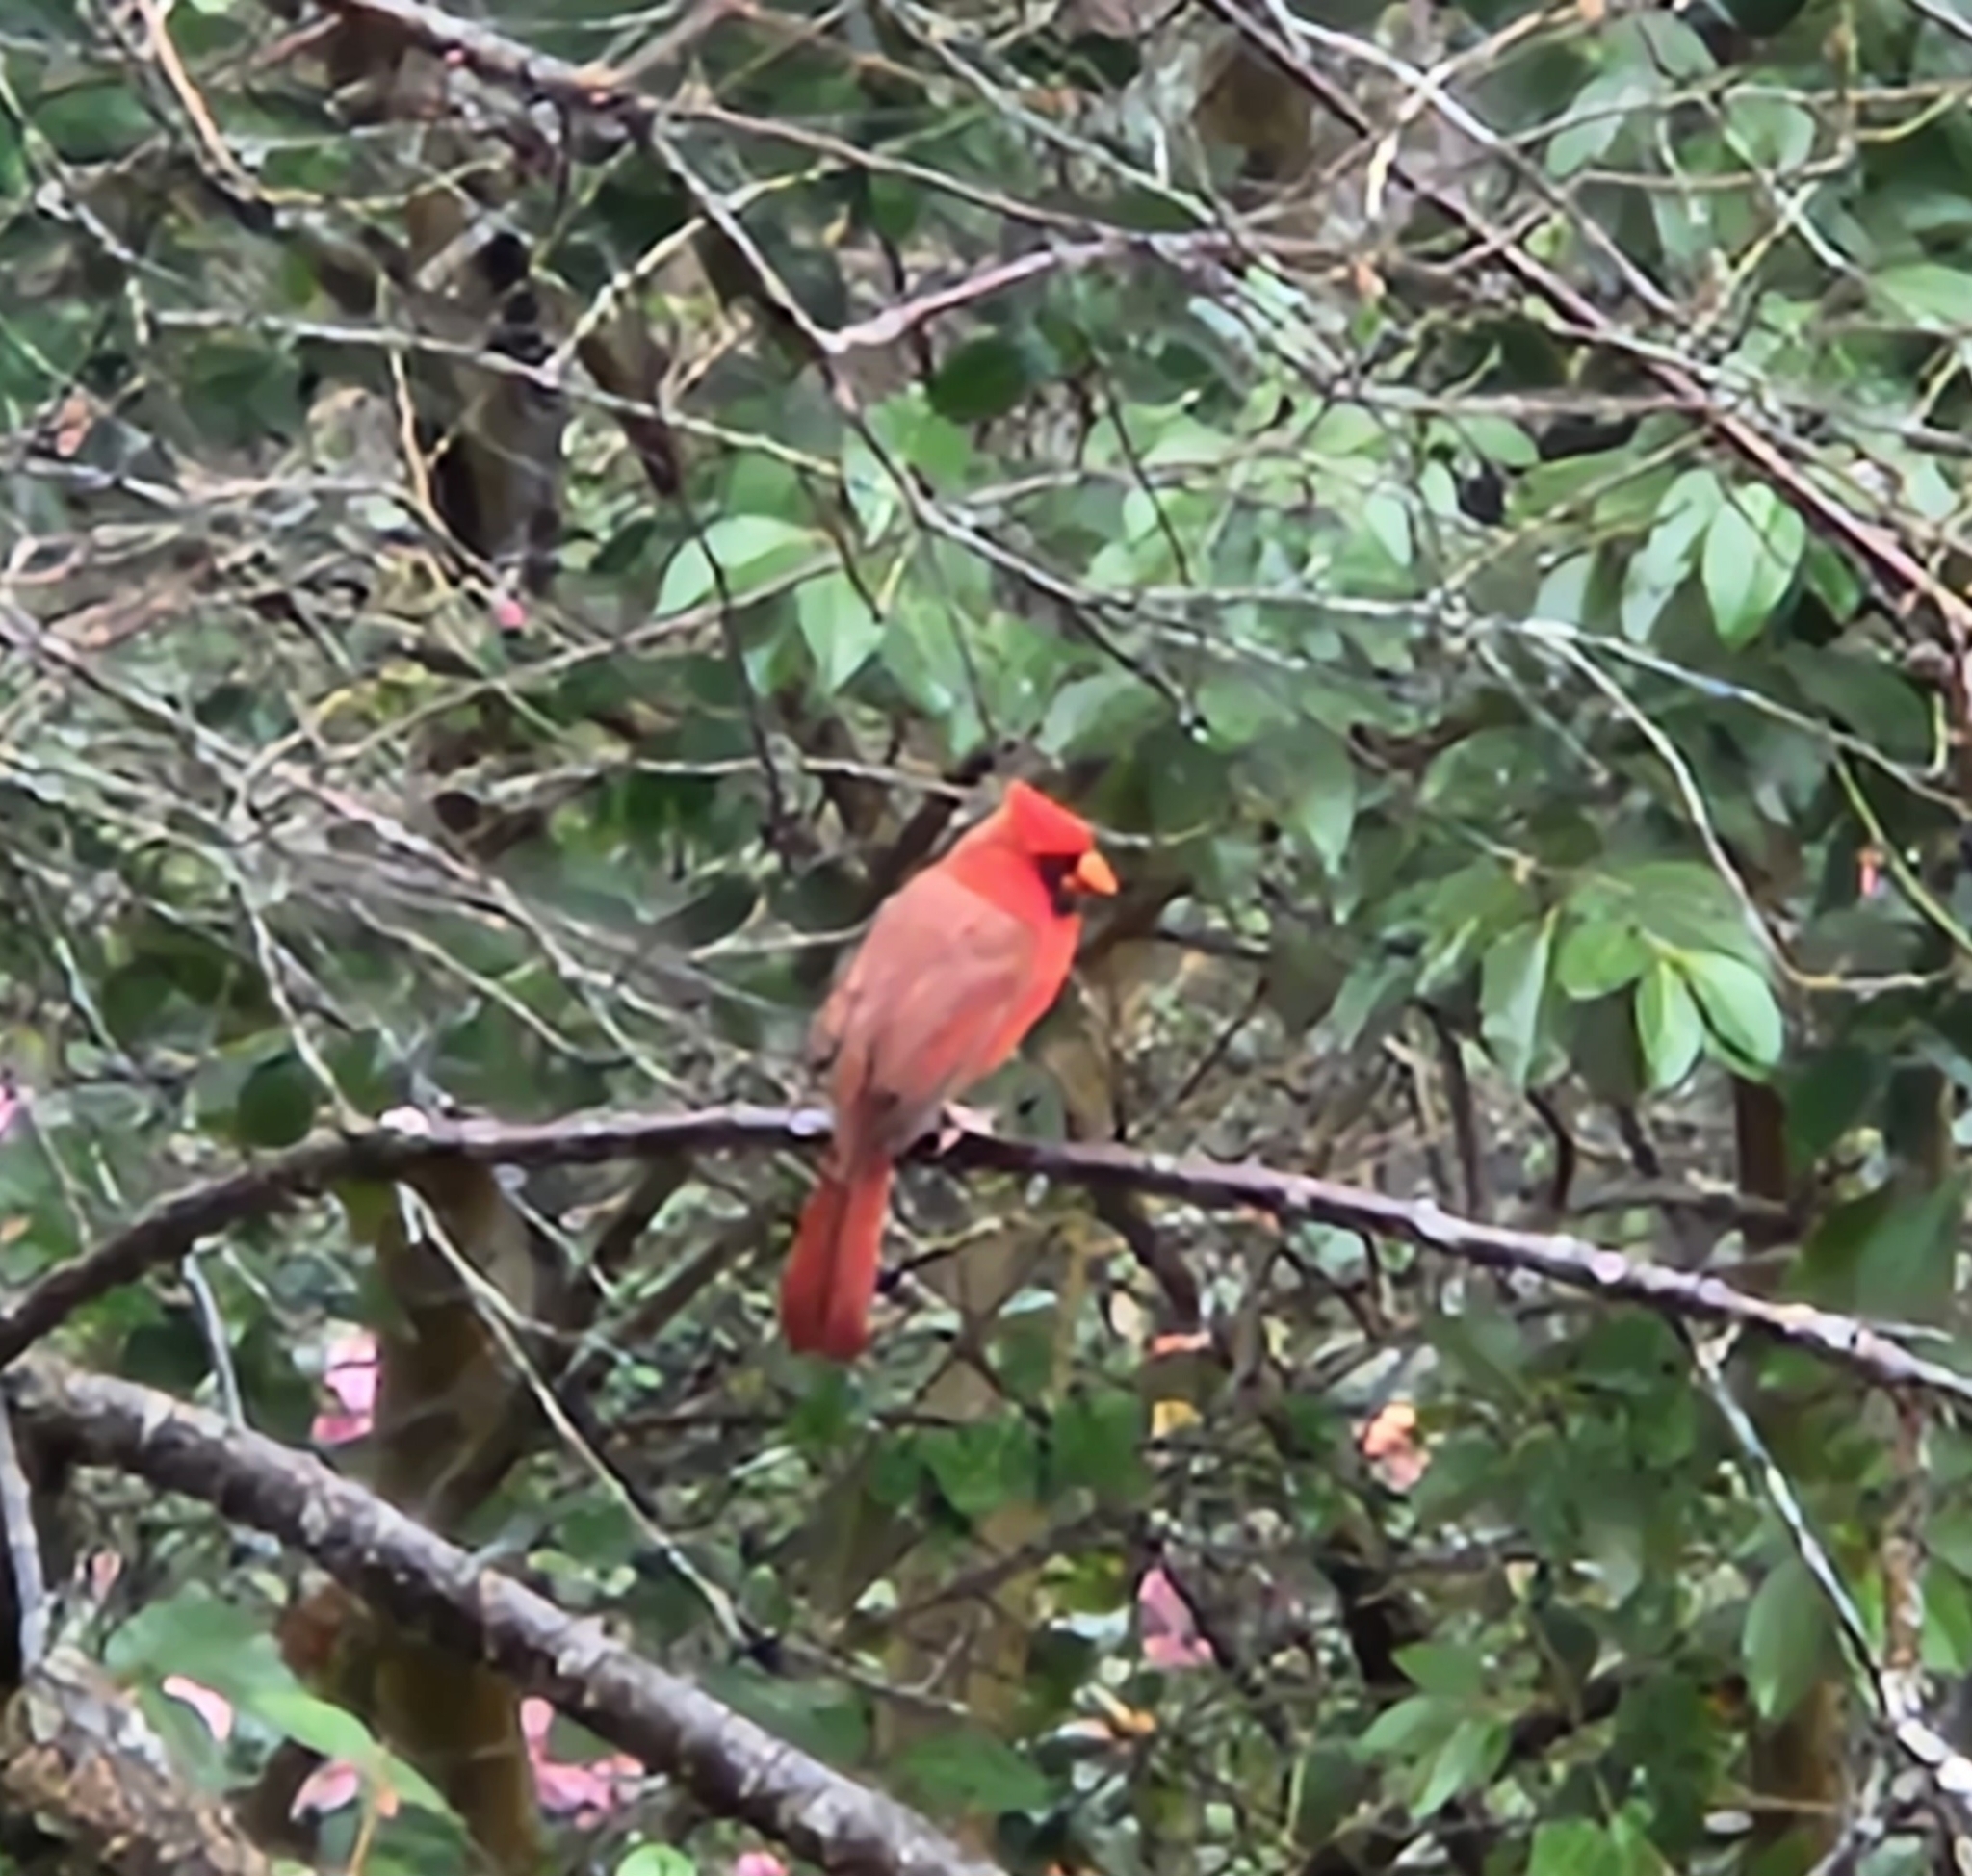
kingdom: Animalia
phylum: Chordata
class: Aves
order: Passeriformes
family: Cardinalidae
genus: Cardinalis
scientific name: Cardinalis cardinalis
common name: Northern cardinal
